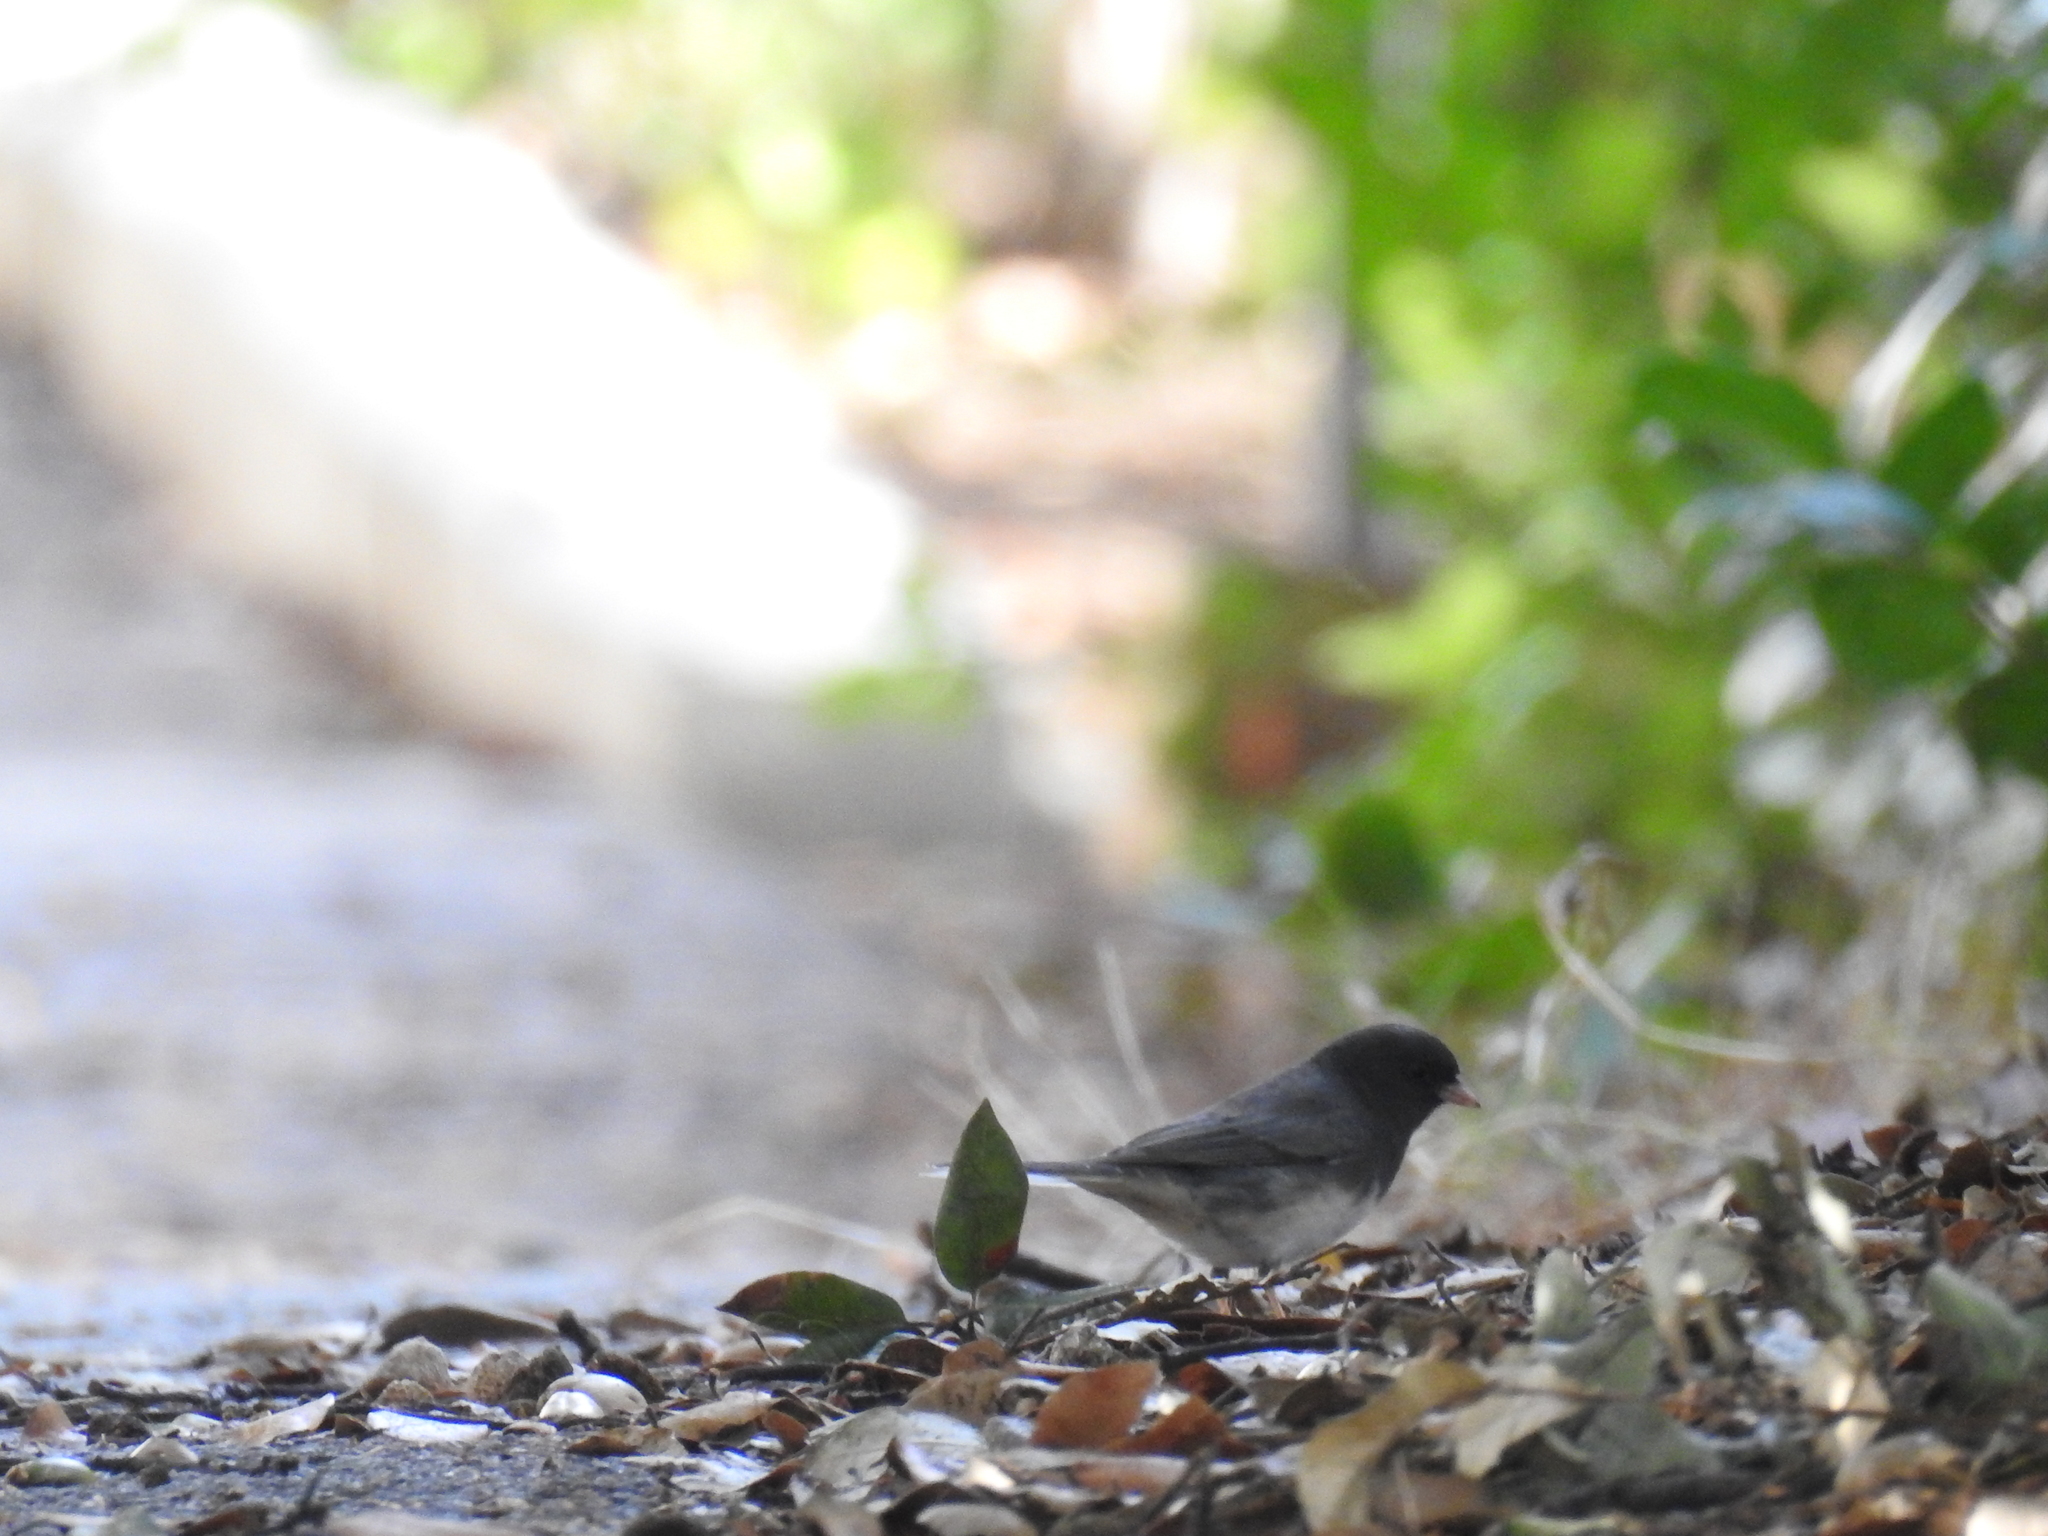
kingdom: Animalia
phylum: Chordata
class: Aves
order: Passeriformes
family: Passerellidae
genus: Junco
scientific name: Junco hyemalis
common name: Dark-eyed junco
